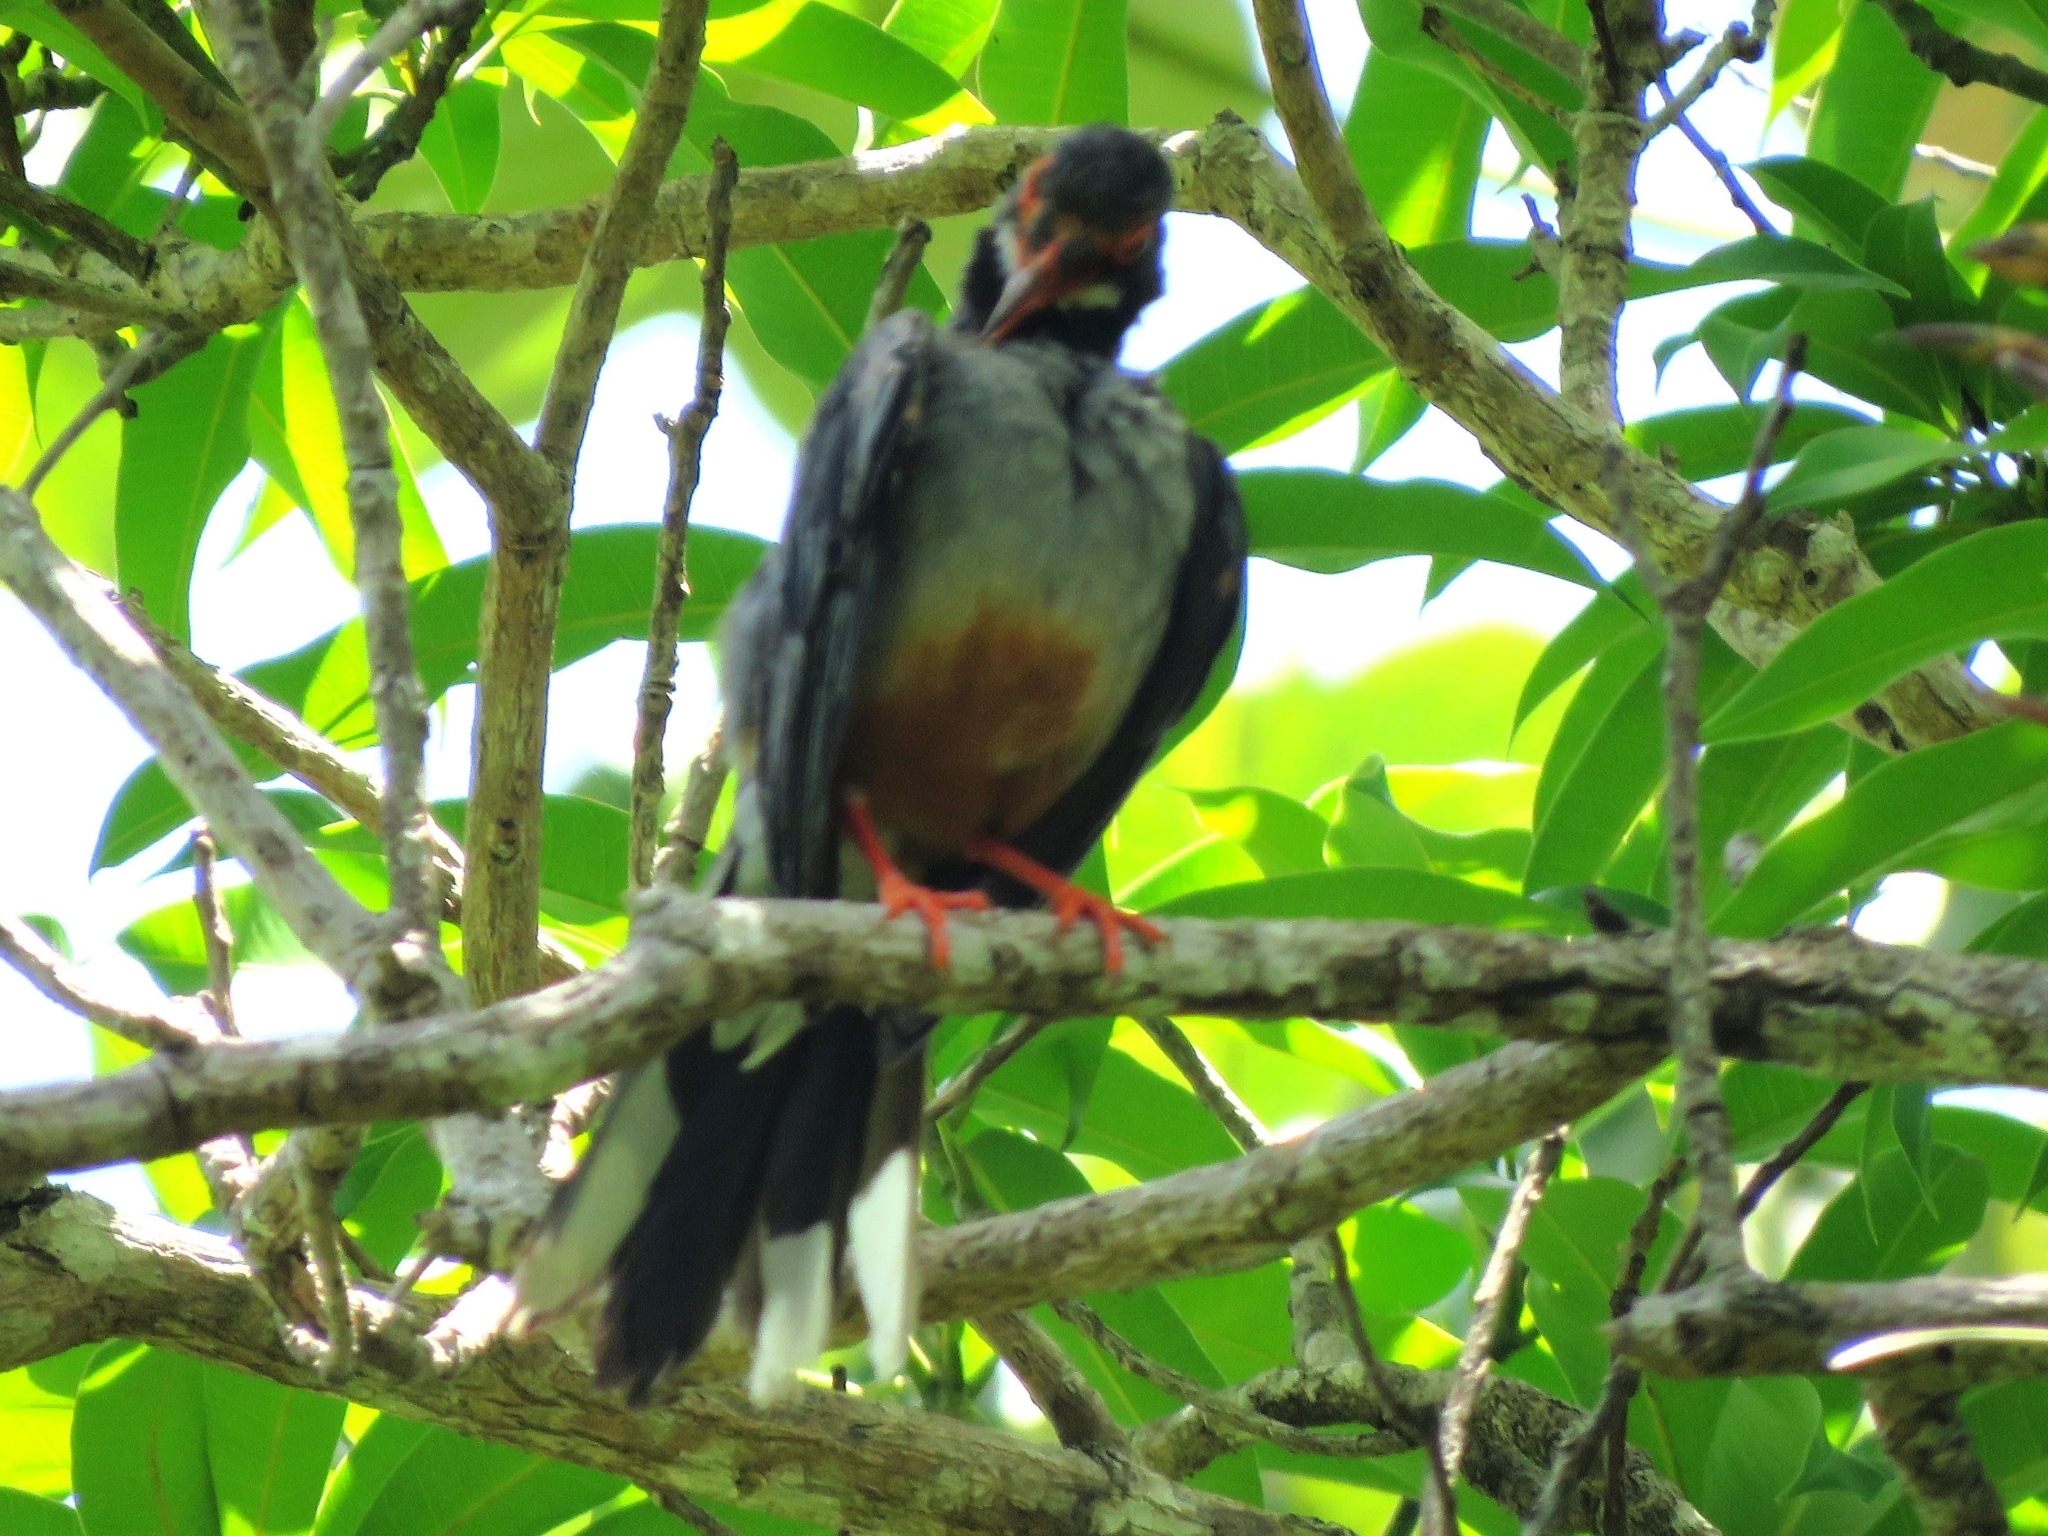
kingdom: Animalia
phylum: Chordata
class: Aves
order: Passeriformes
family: Turdidae
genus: Turdus
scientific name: Turdus plumbeus
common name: Red-legged thrush
